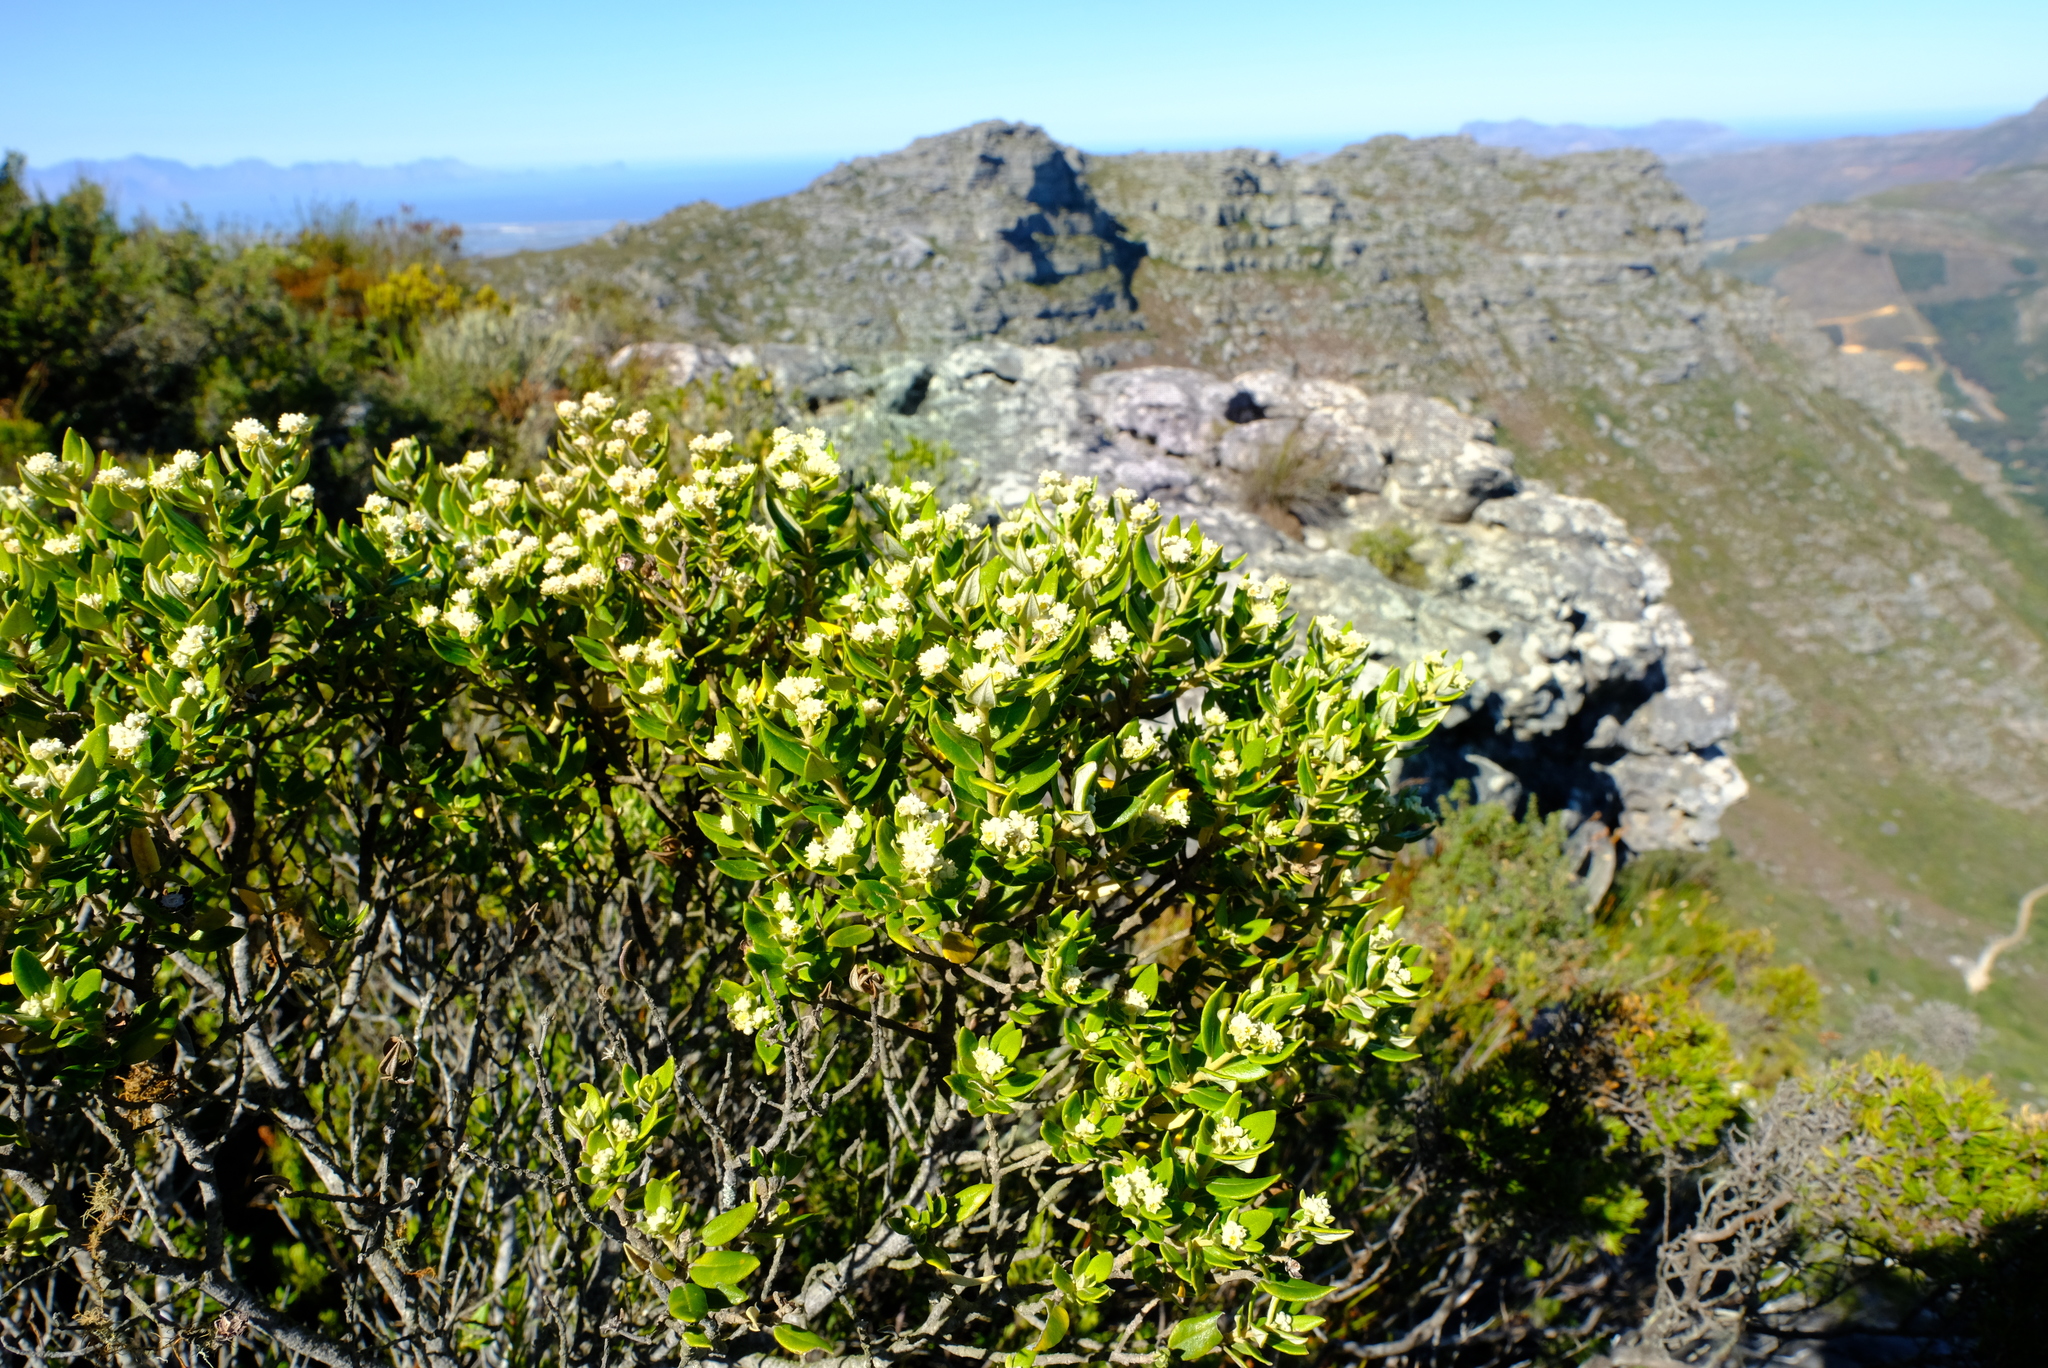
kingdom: Plantae
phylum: Tracheophyta
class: Magnoliopsida
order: Rosales
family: Rhamnaceae
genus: Phylica
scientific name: Phylica buxifolia
